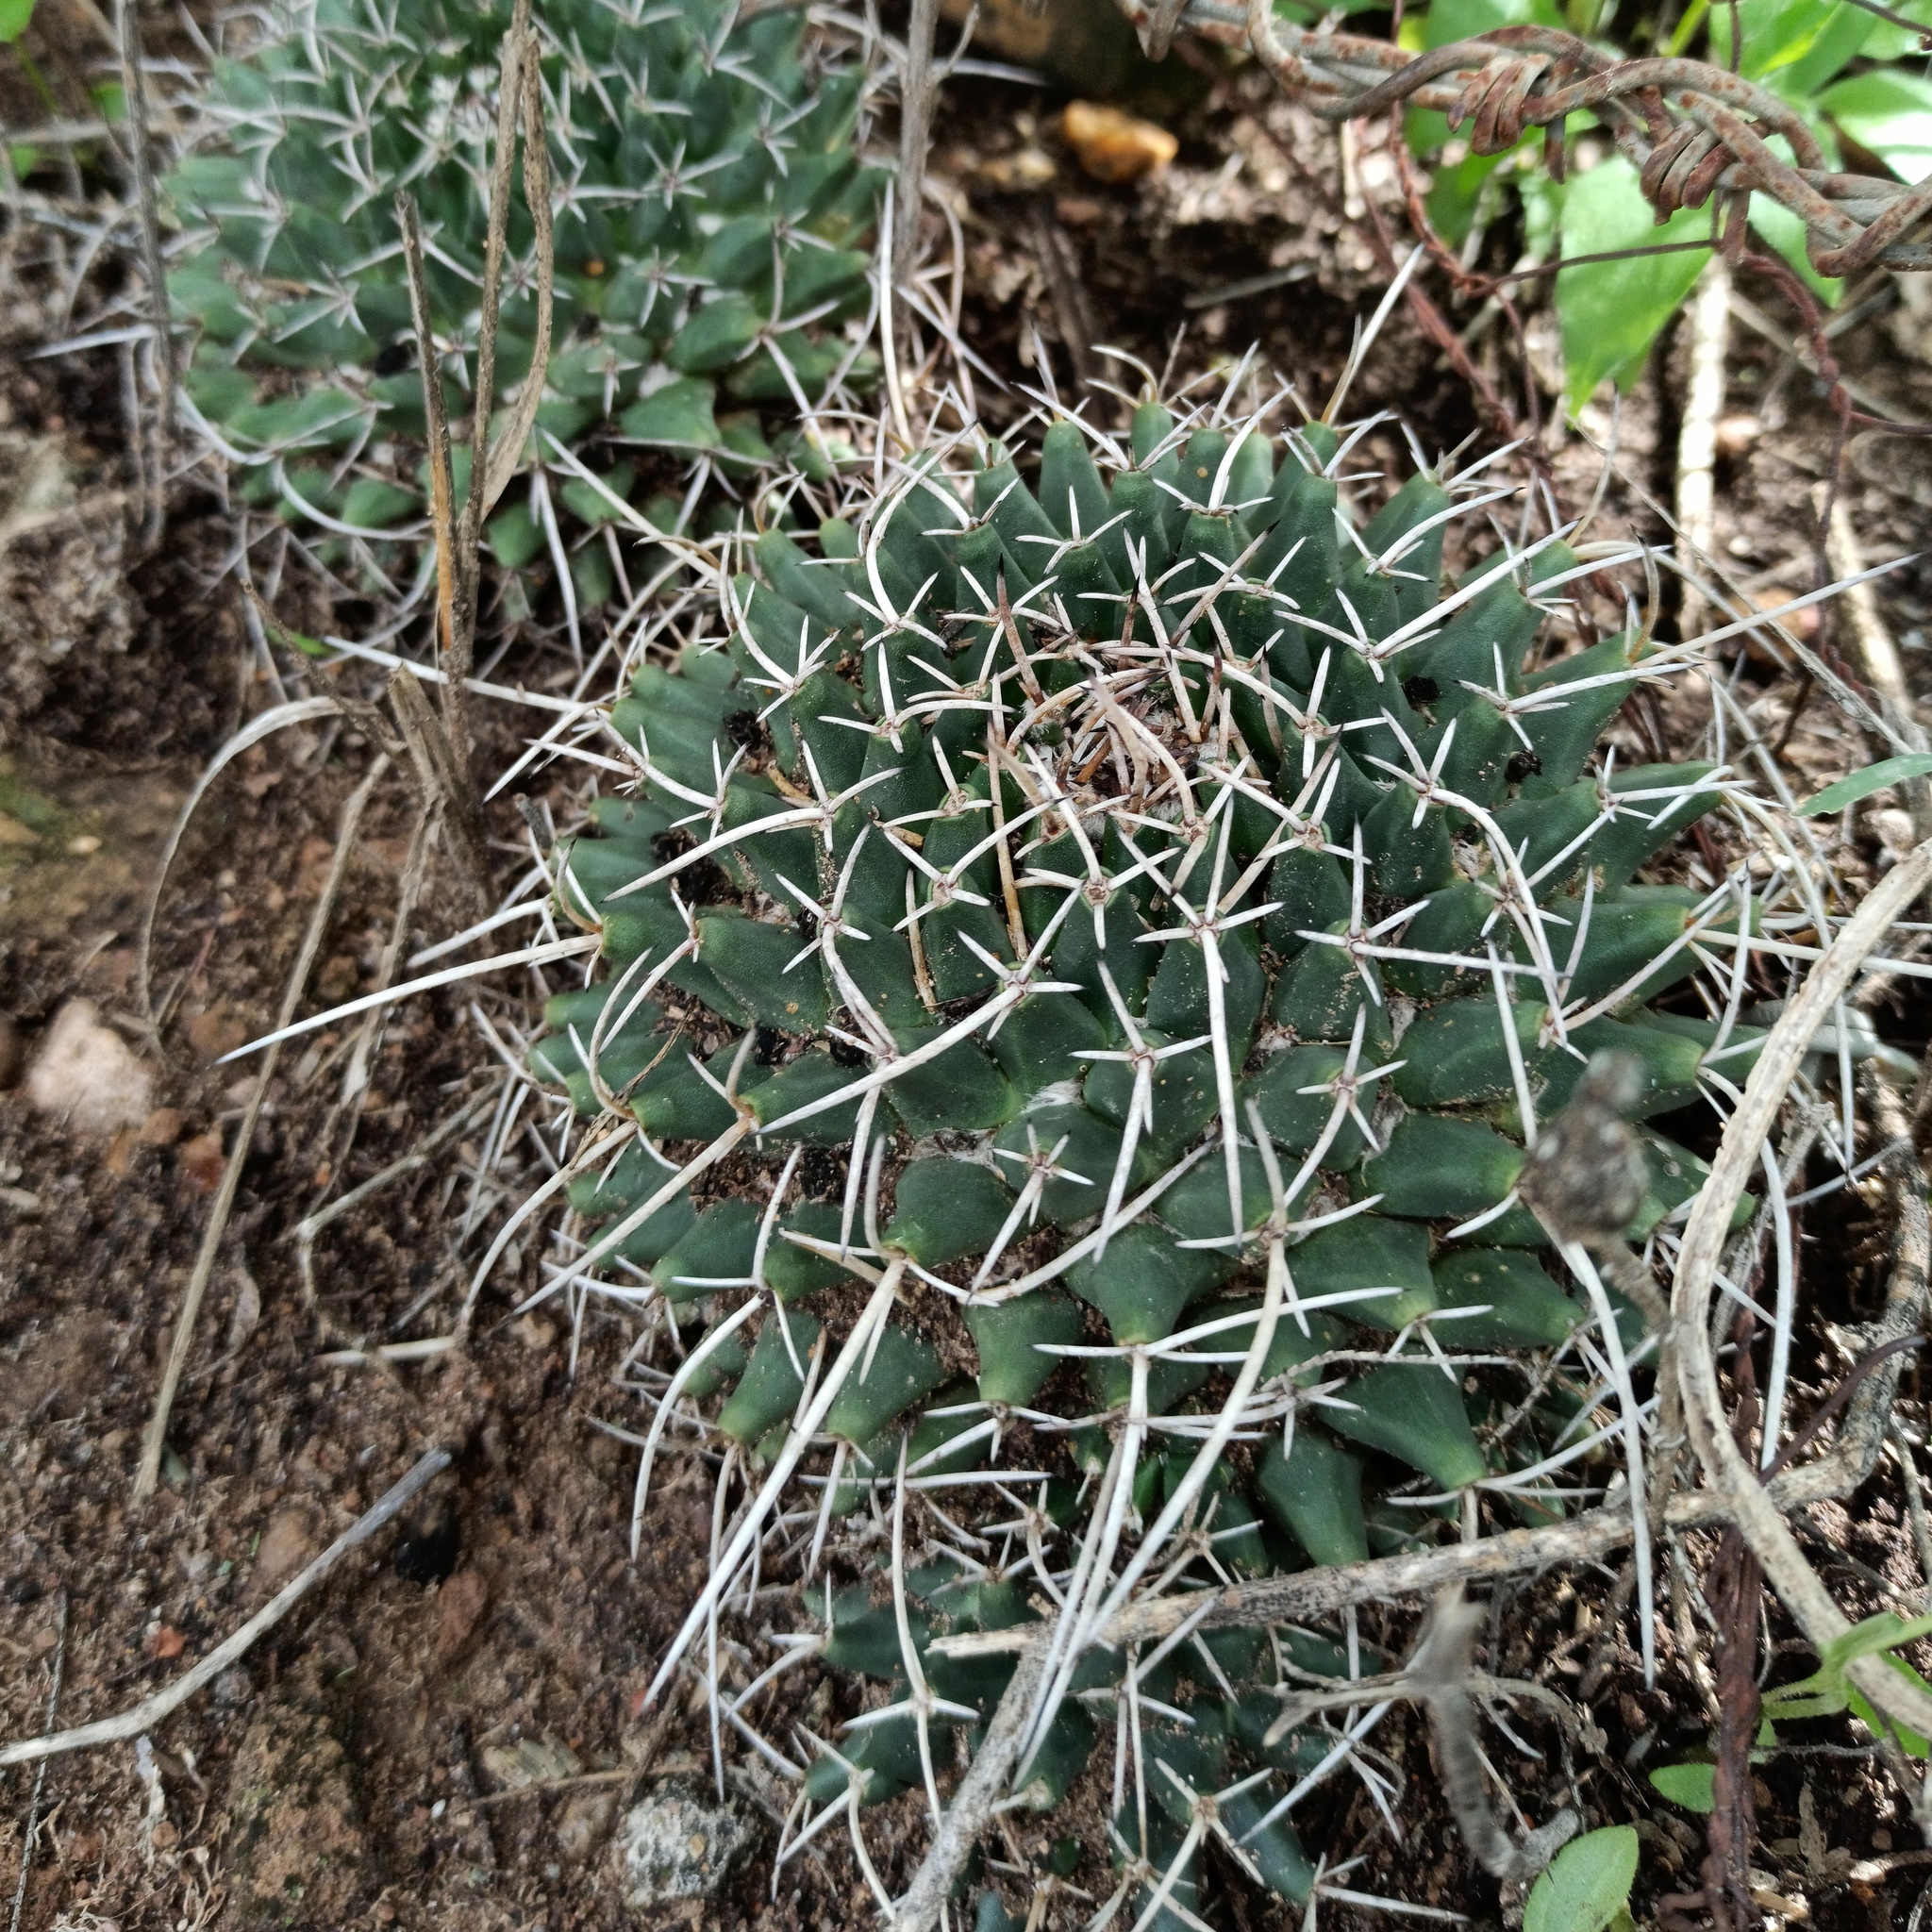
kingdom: Plantae
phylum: Tracheophyta
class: Magnoliopsida
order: Caryophyllales
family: Cactaceae
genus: Mammillaria
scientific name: Mammillaria magnimamma
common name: Mexican pincushion
